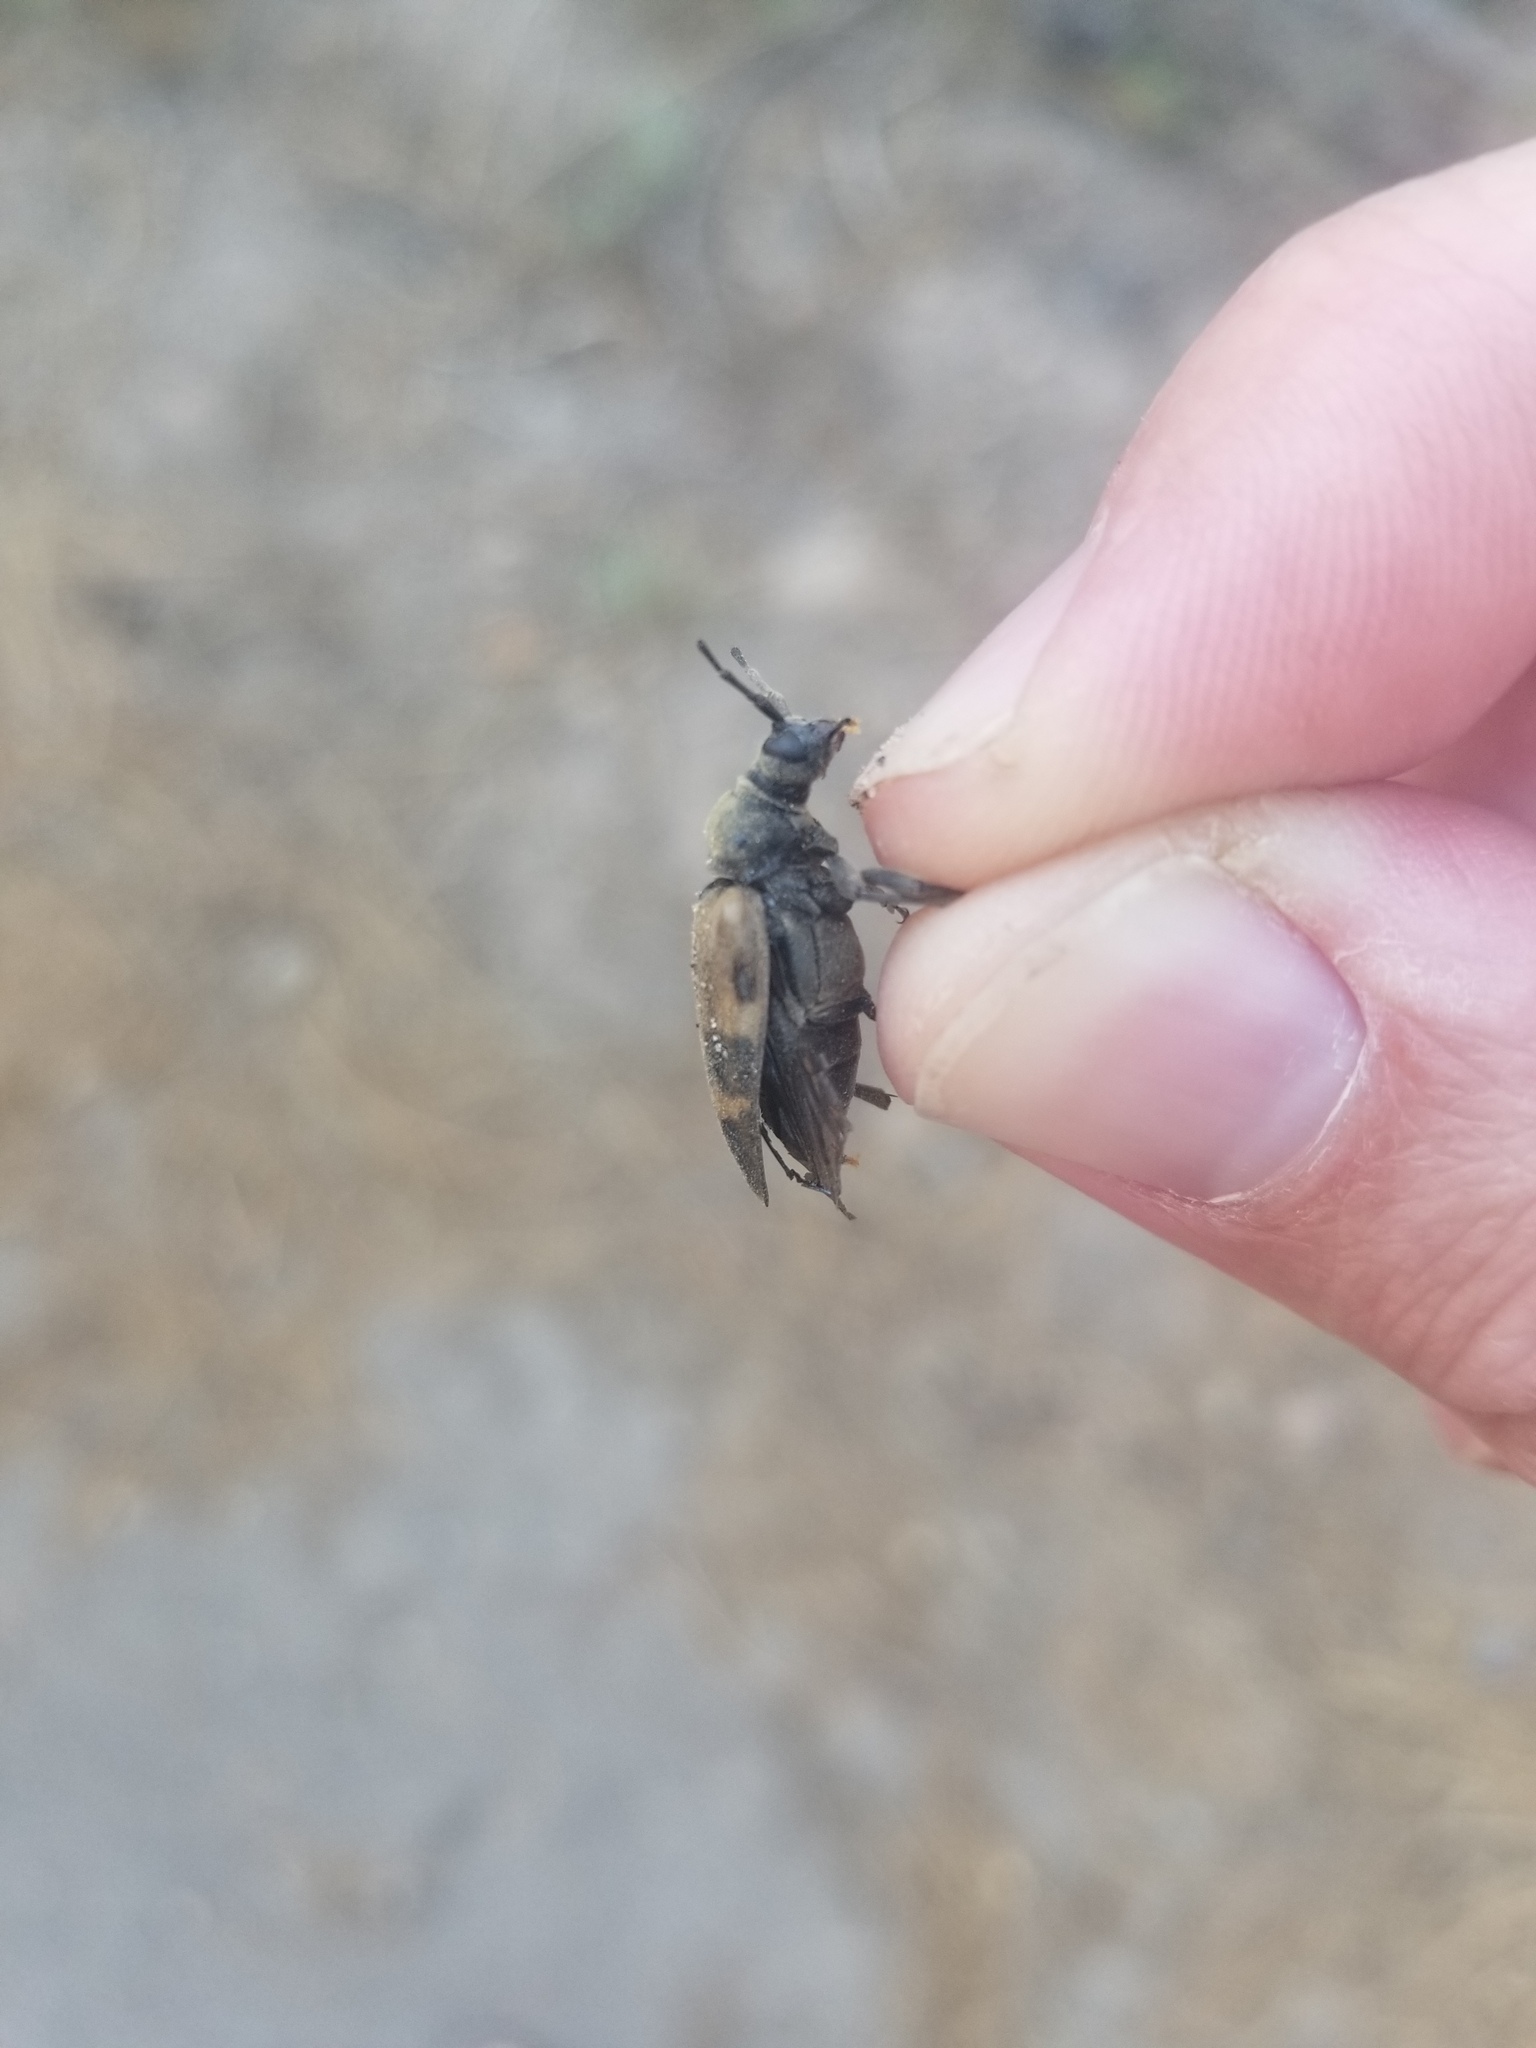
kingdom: Animalia
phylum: Arthropoda
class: Insecta
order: Coleoptera
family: Cerambycidae
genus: Dorcasina
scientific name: Dorcasina matthewsii
